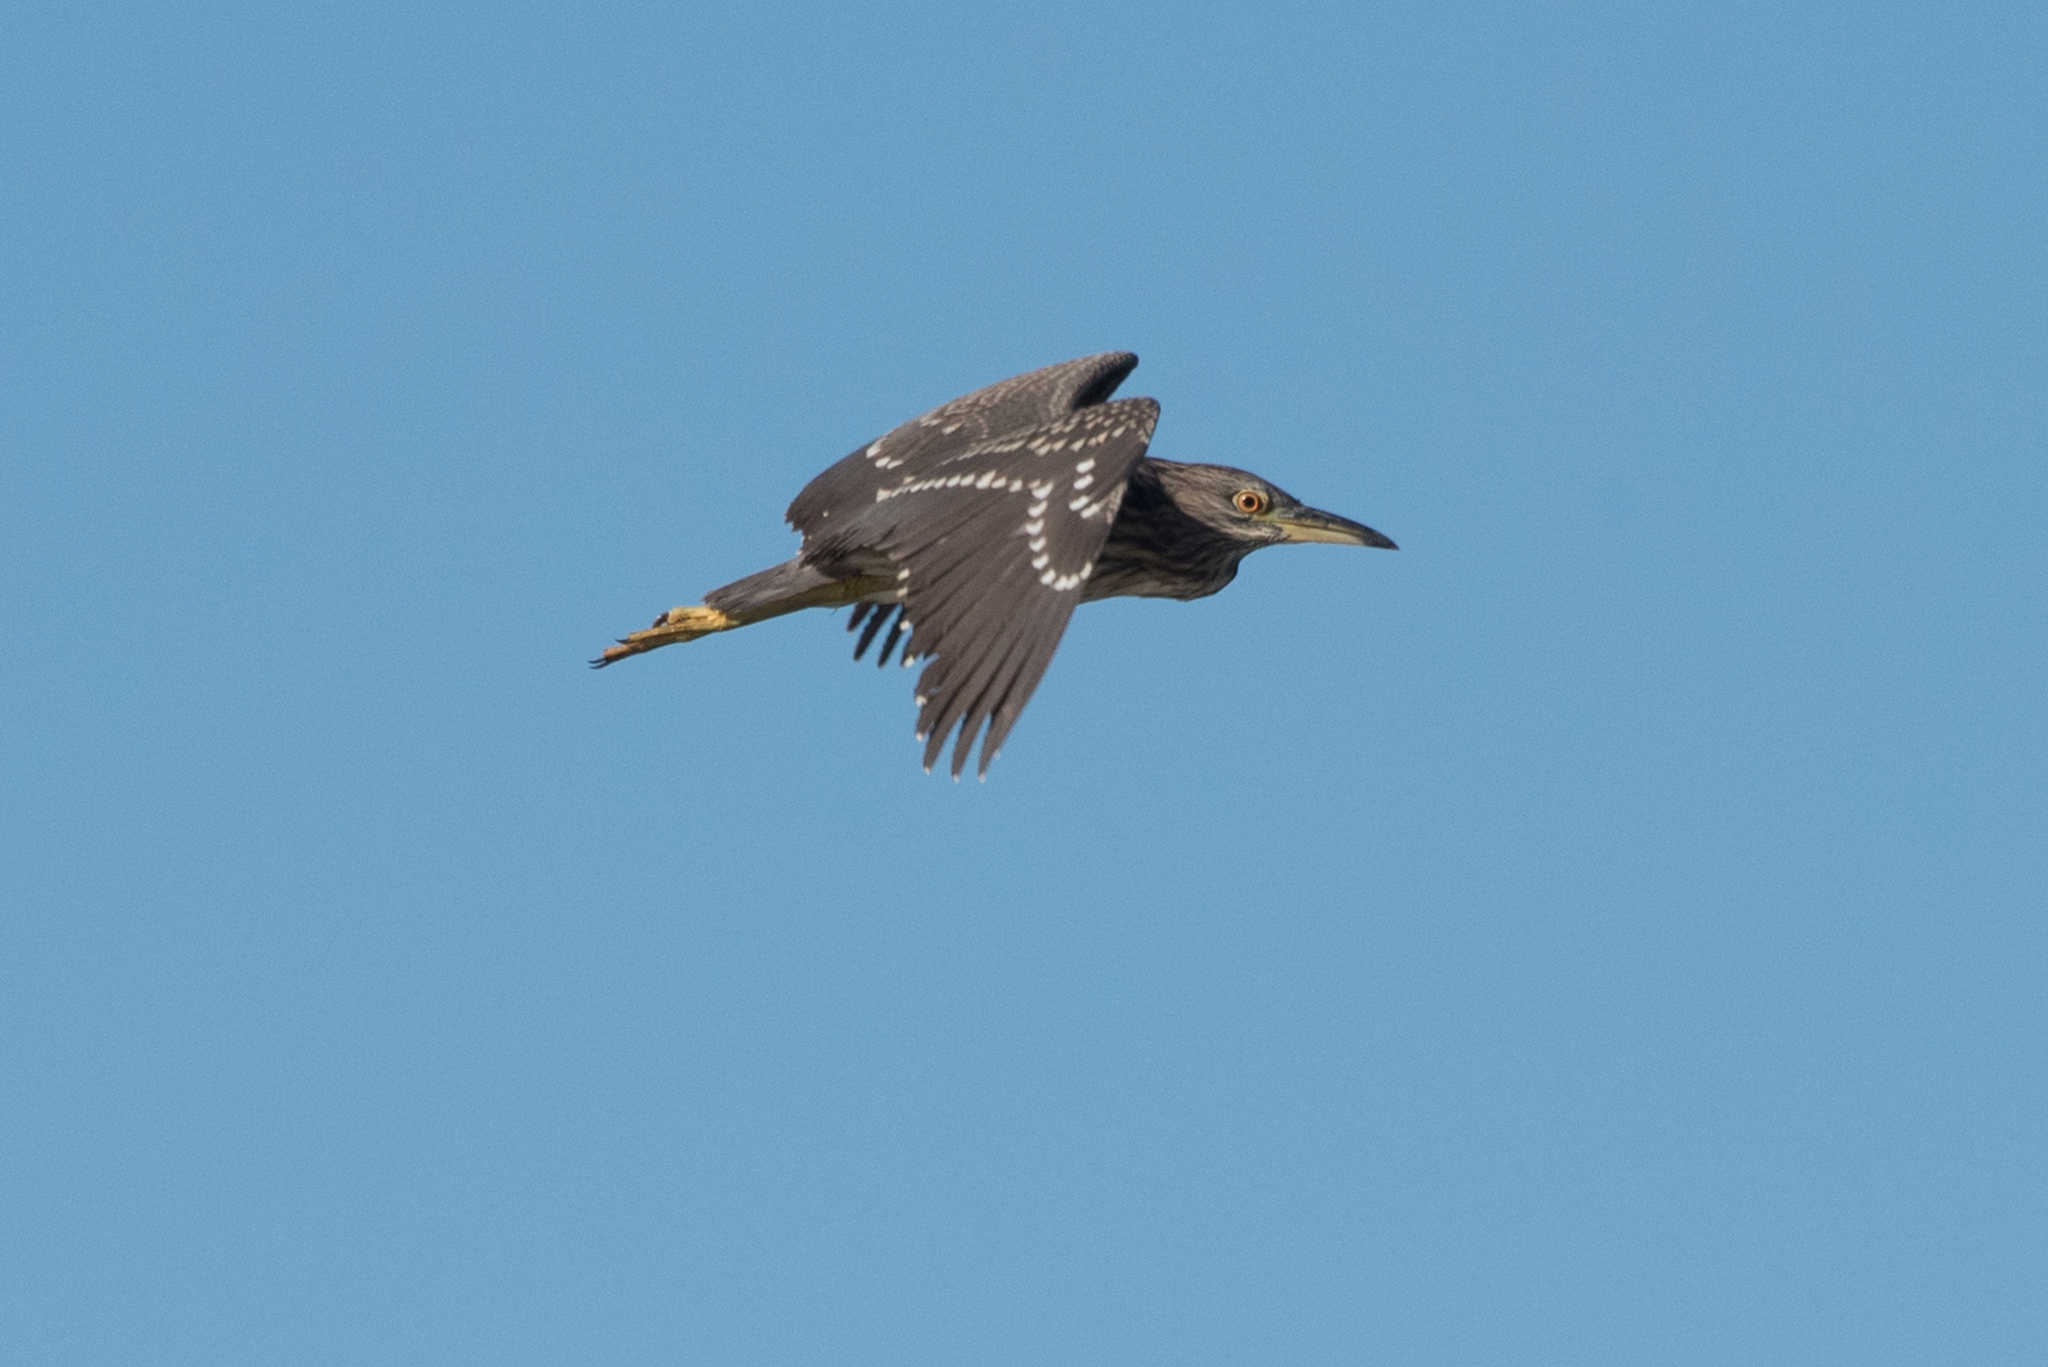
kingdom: Animalia
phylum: Chordata
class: Aves
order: Pelecaniformes
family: Ardeidae
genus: Nycticorax
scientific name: Nycticorax nycticorax
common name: Black-crowned night heron
